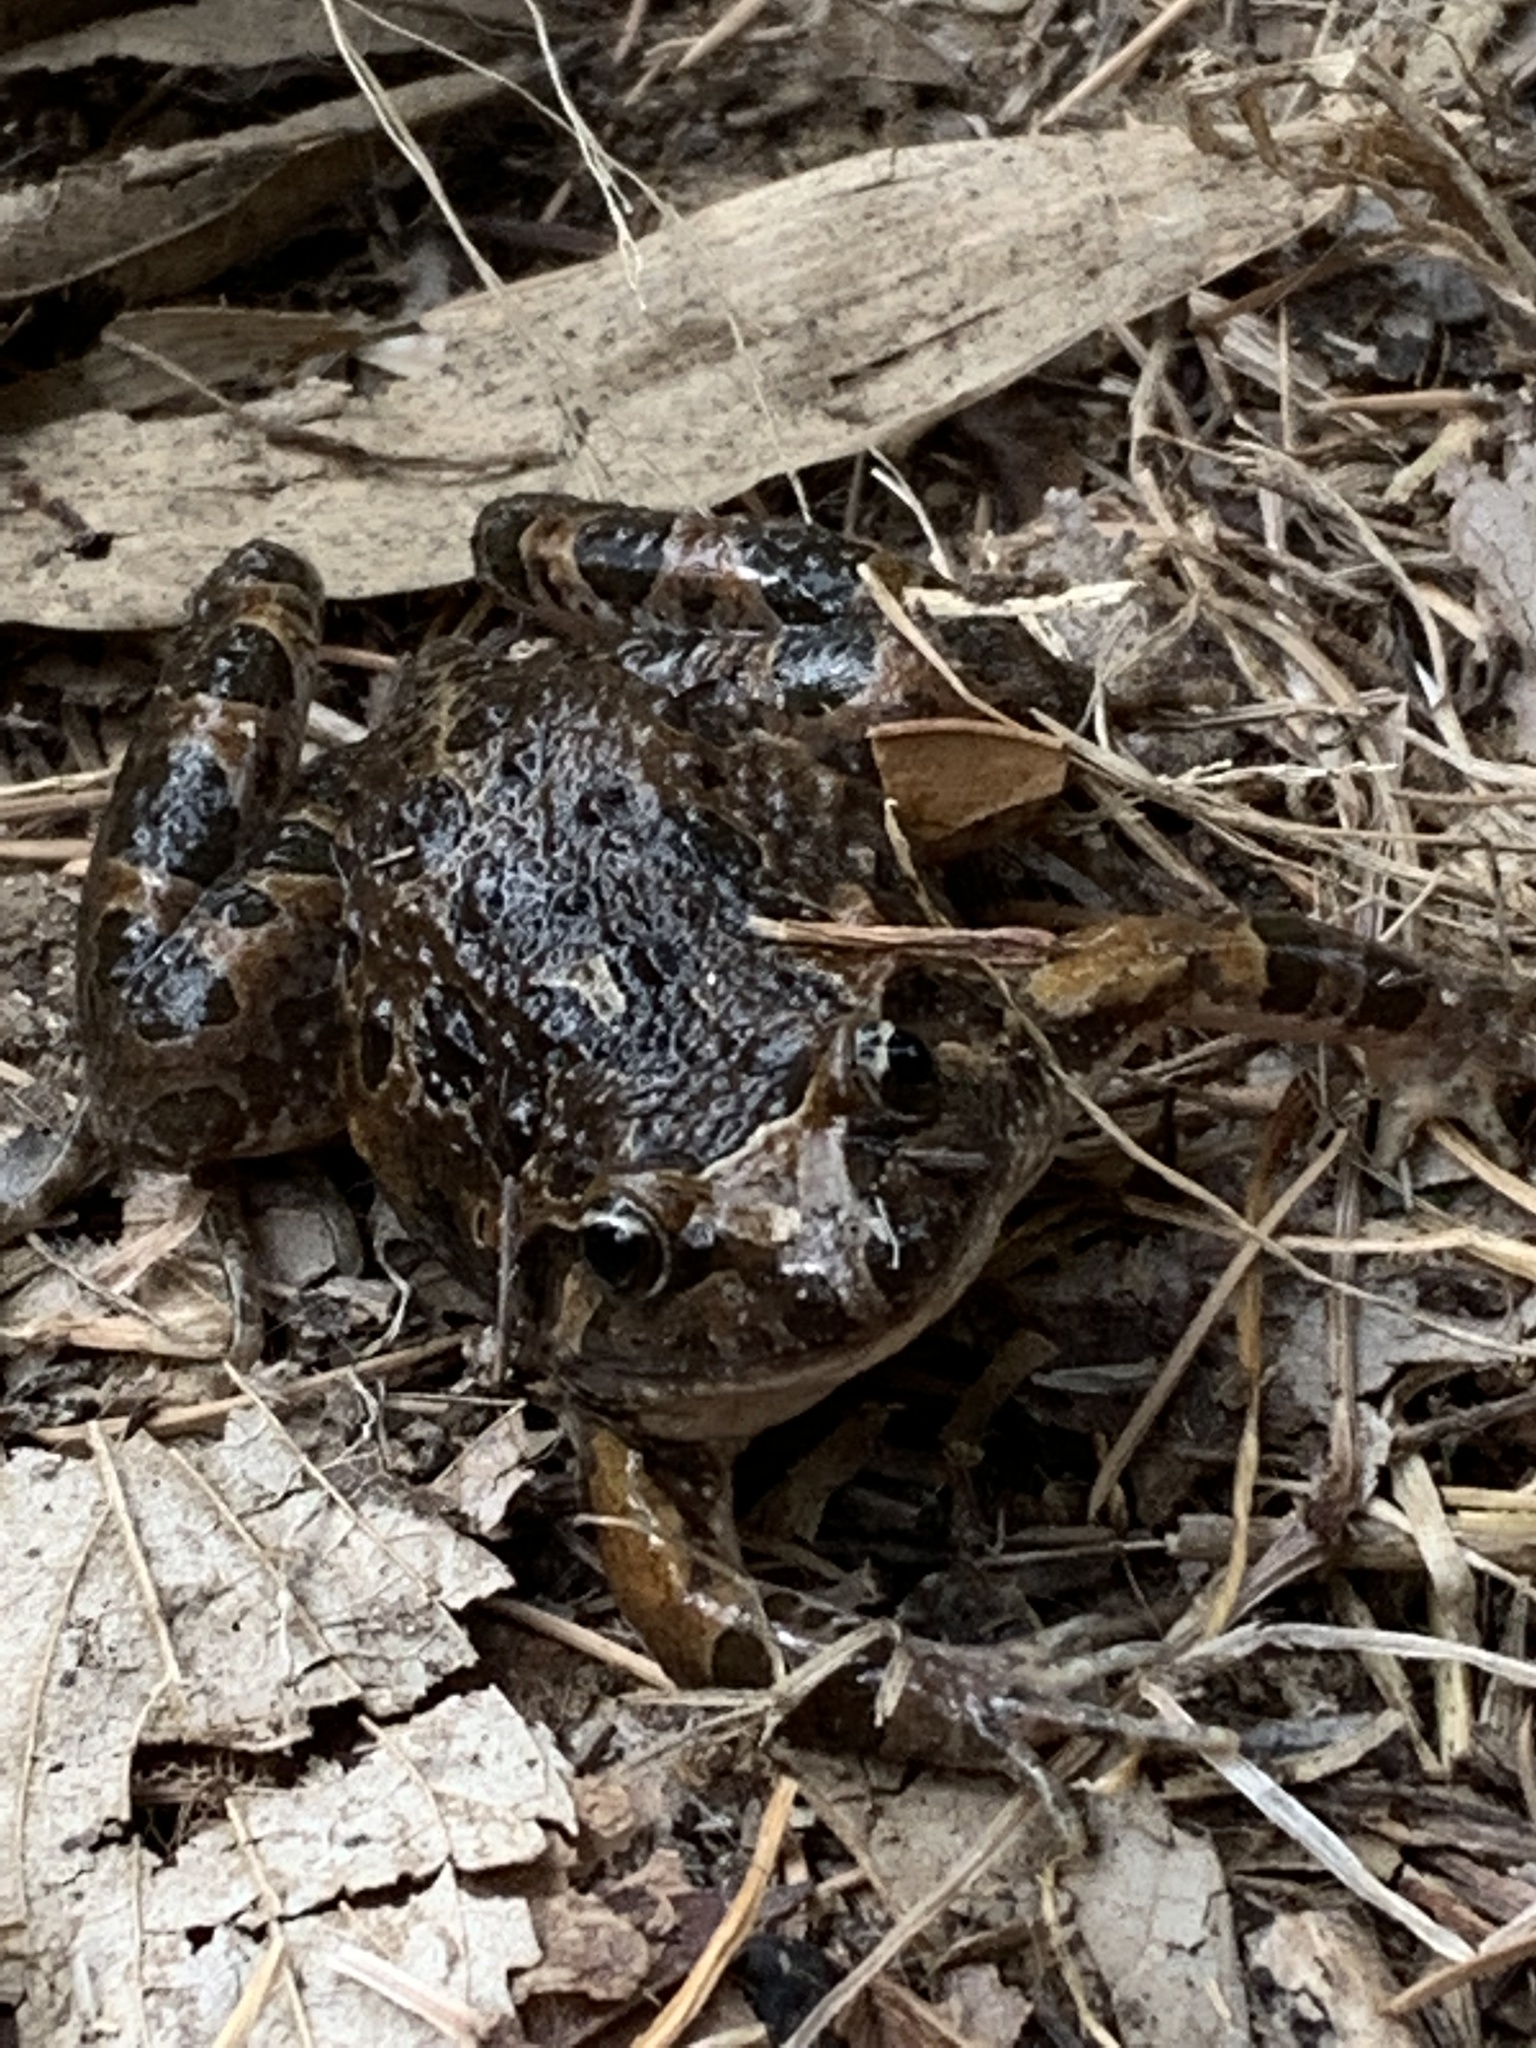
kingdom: Animalia
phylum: Chordata
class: Amphibia
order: Anura
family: Alytidae
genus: Discoglossus
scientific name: Discoglossus pictus
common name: Painted frog
